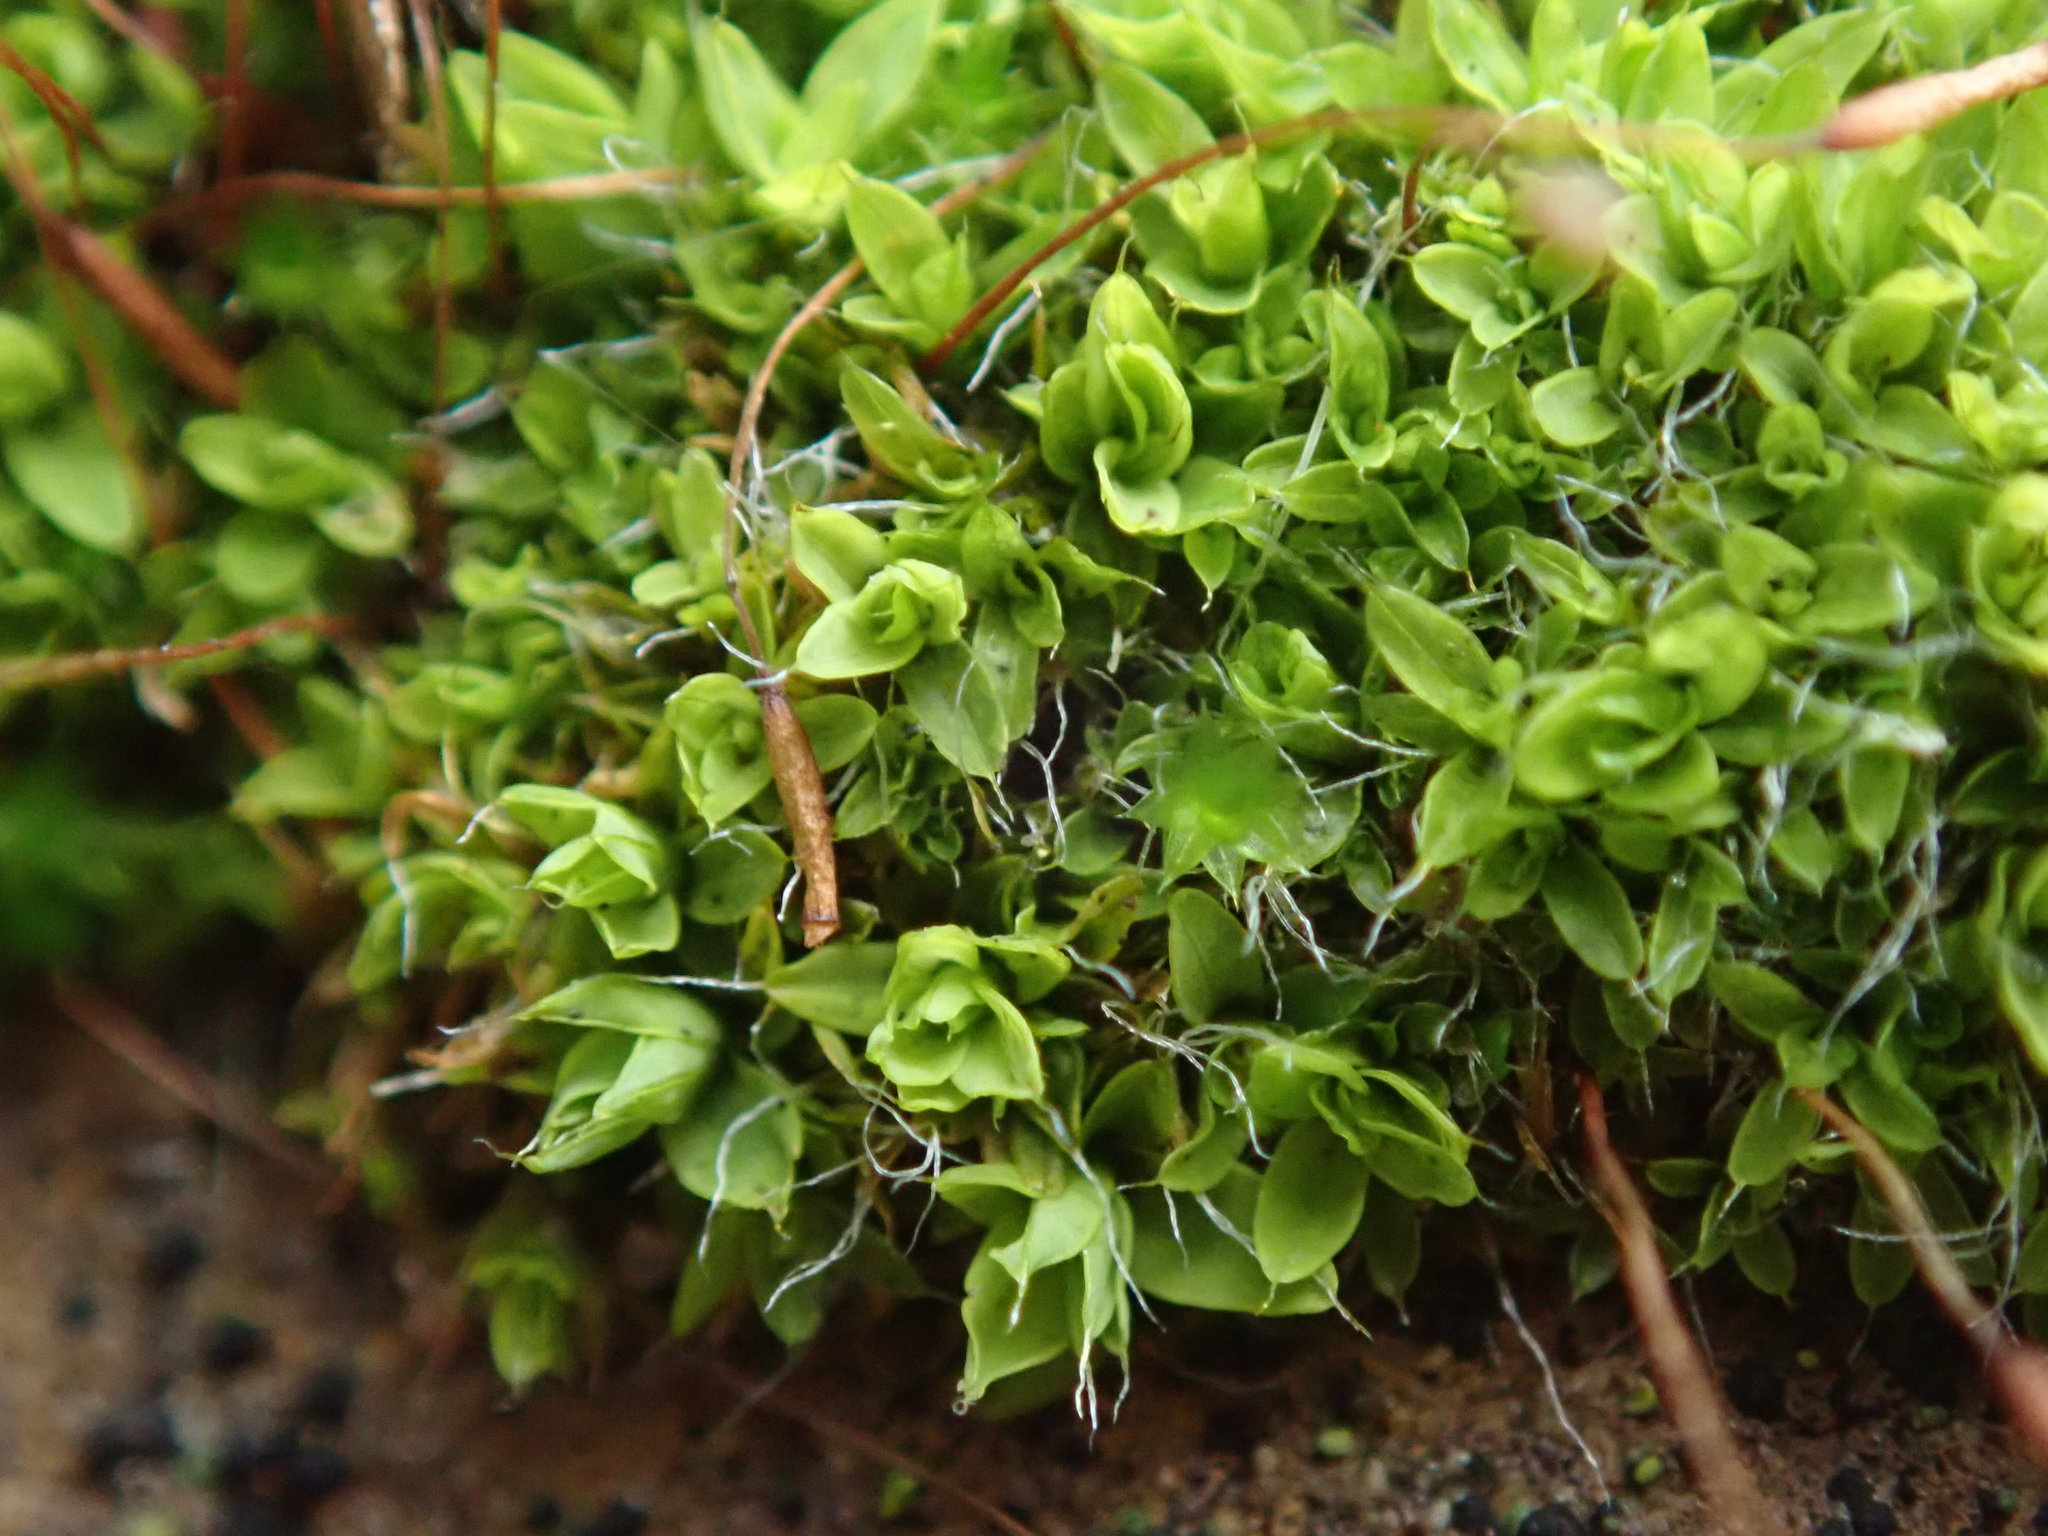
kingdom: Plantae
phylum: Bryophyta
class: Bryopsida
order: Pottiales
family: Pottiaceae
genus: Tortula
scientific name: Tortula muralis
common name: Wall screw-moss
